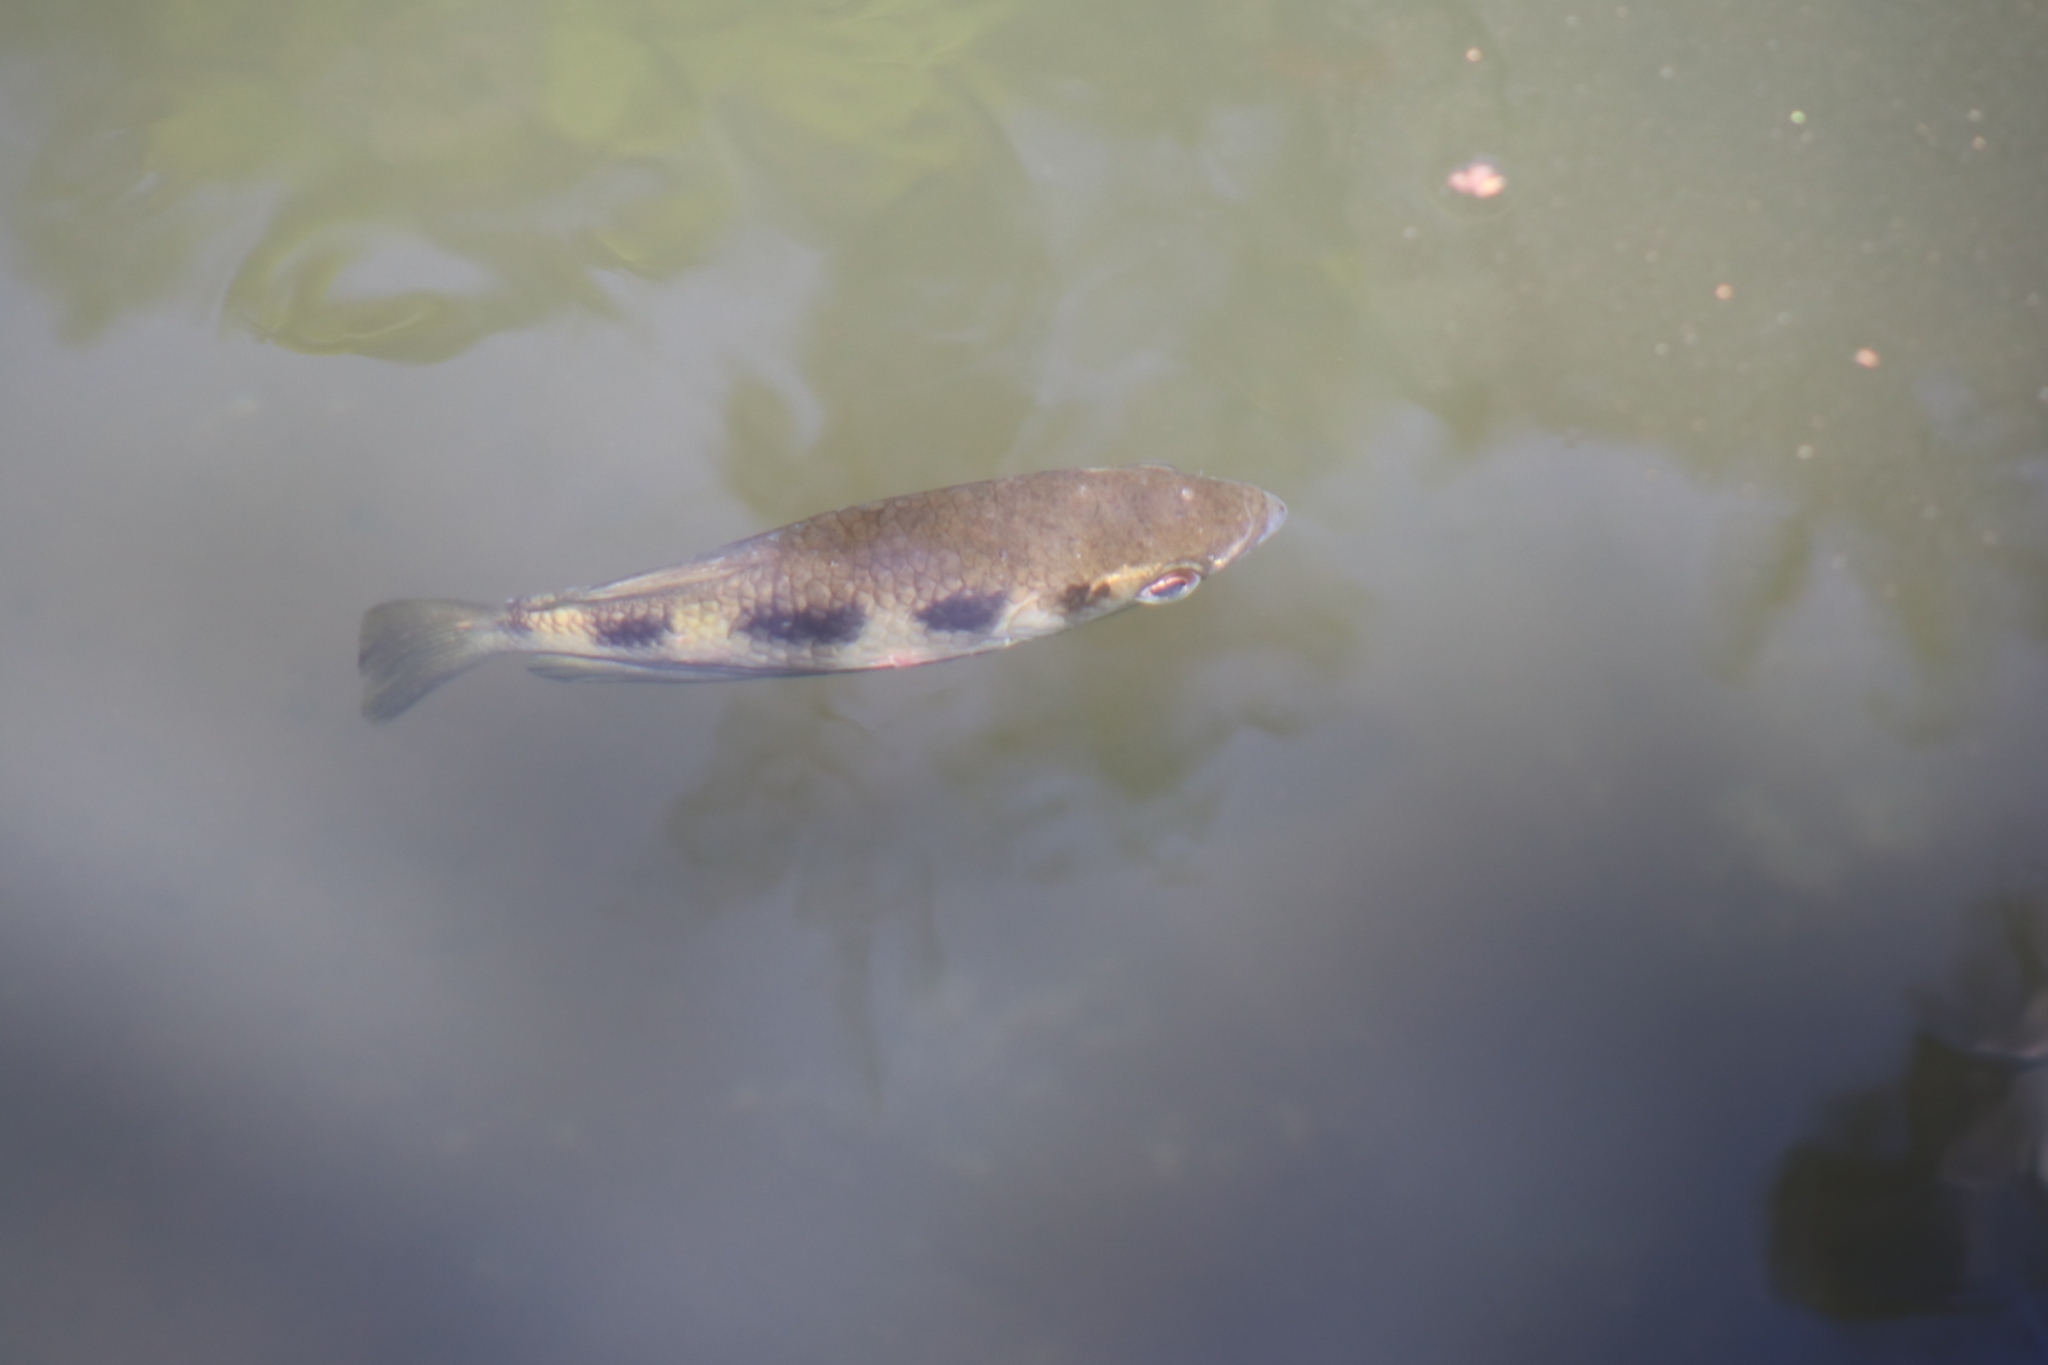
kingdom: Animalia
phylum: Chordata
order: Perciformes
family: Toxotidae
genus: Toxotes
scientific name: Toxotes jaculatrix
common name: Banded archerfish
